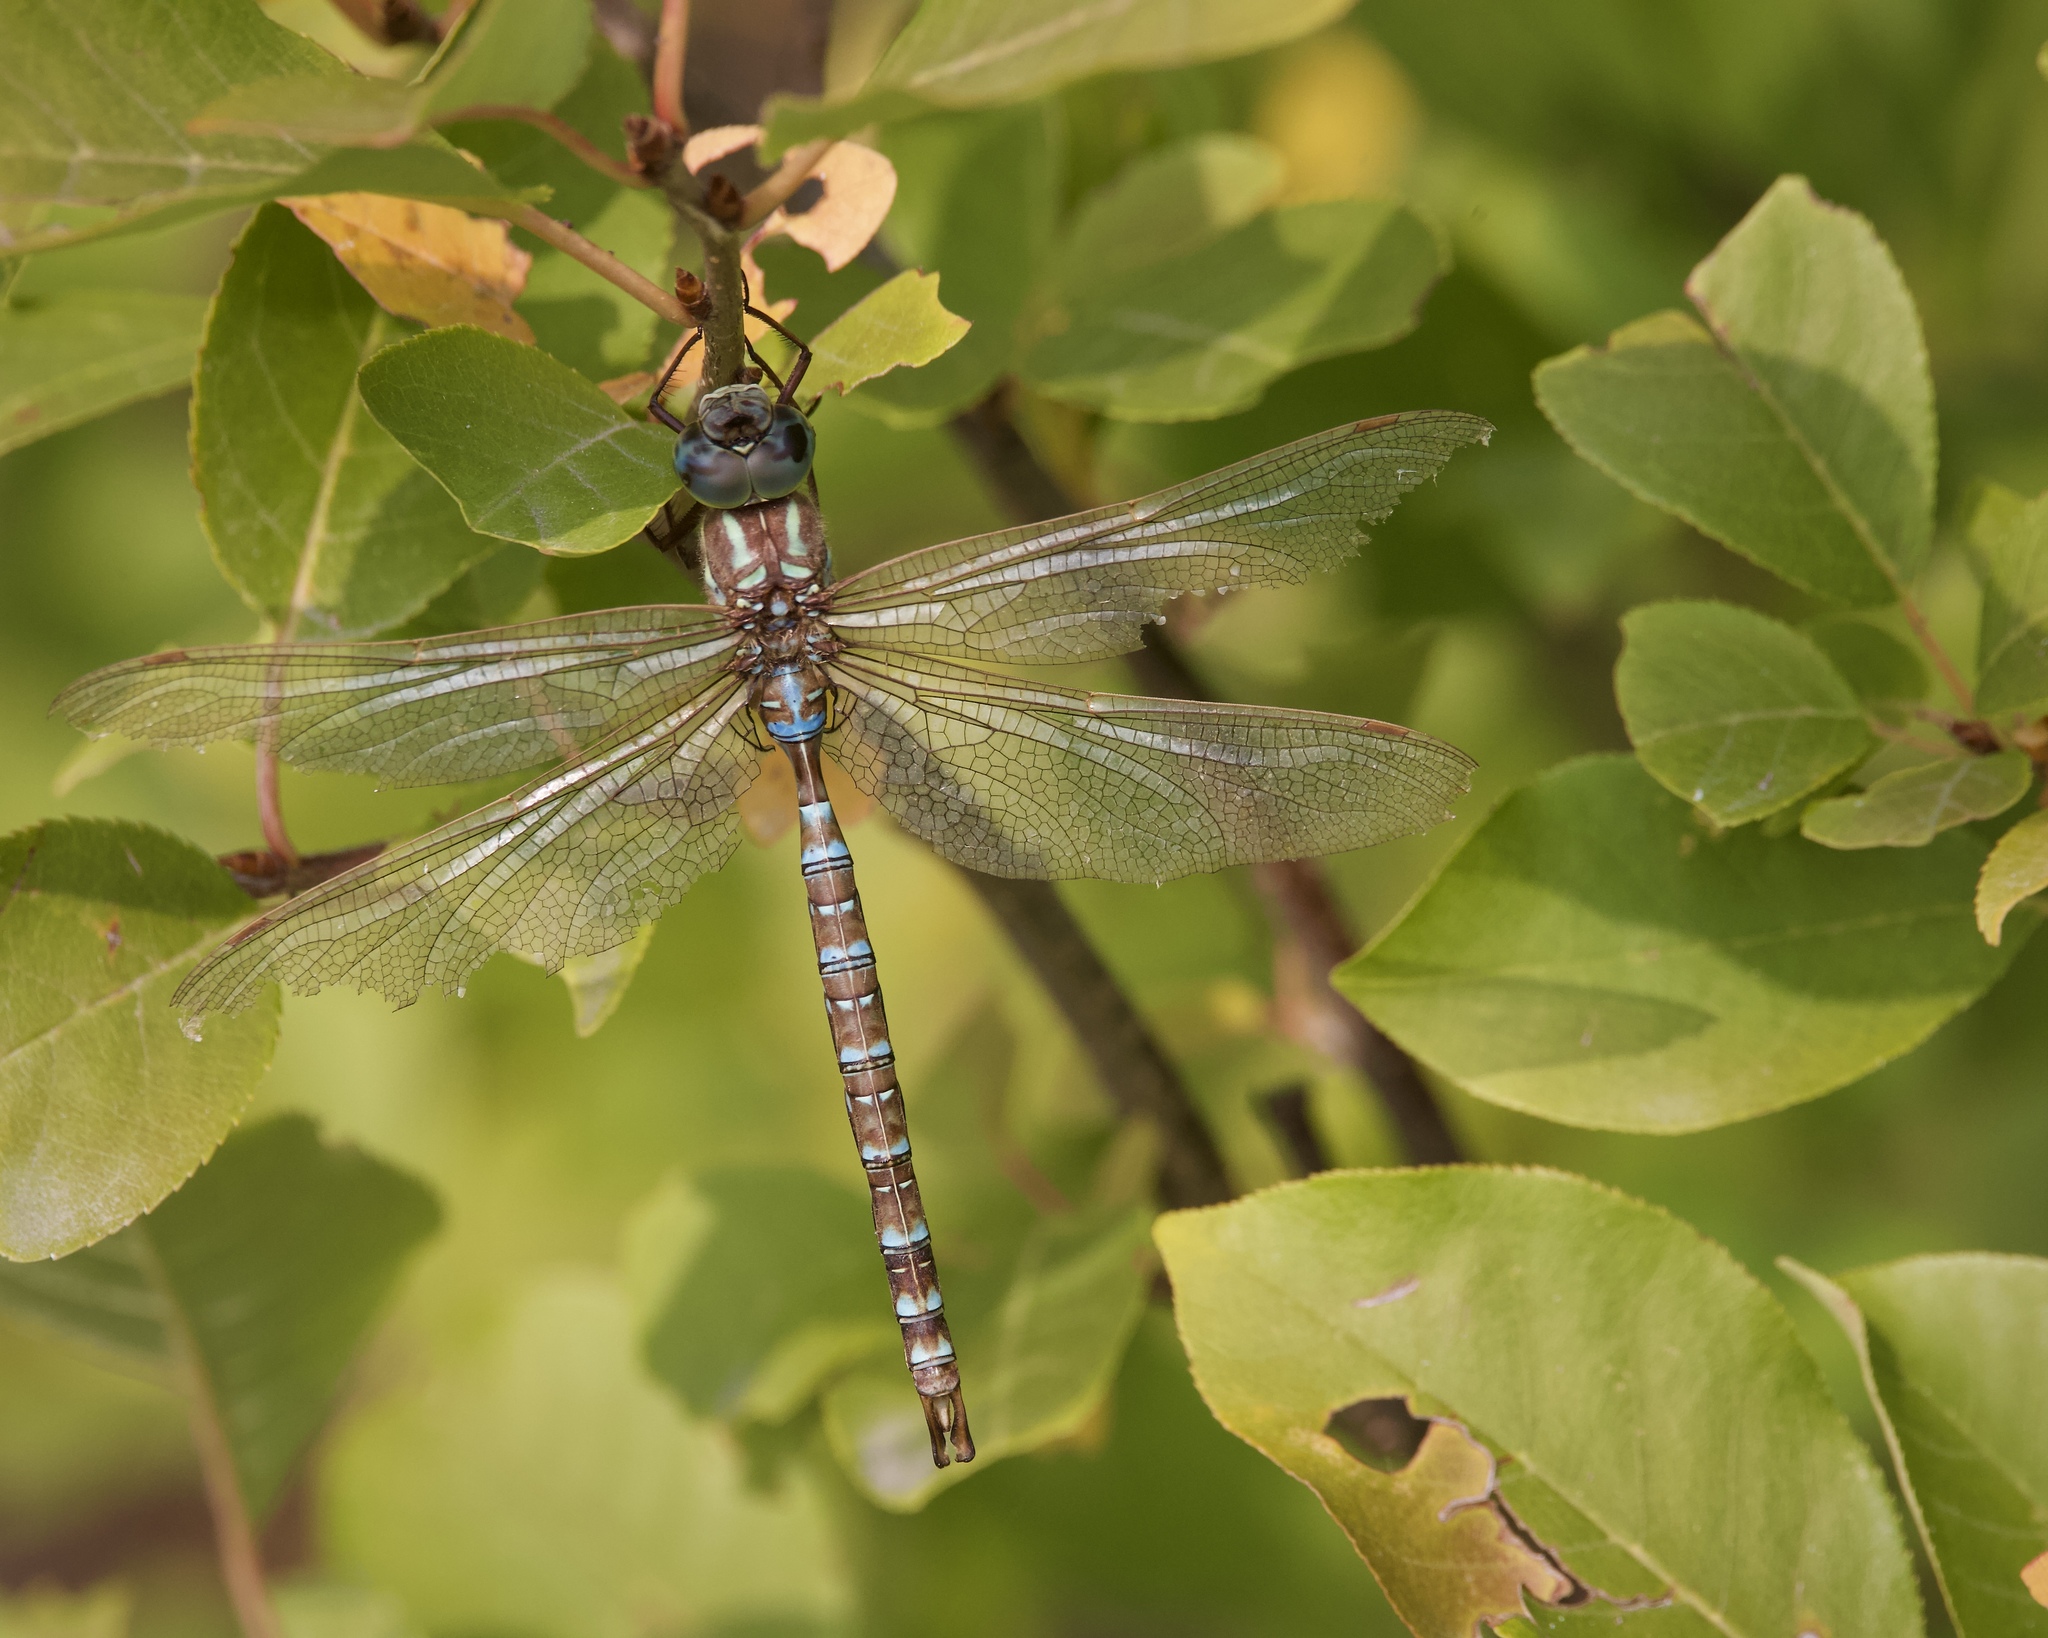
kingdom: Animalia
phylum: Arthropoda
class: Insecta
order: Odonata
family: Aeshnidae
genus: Aeshna
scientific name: Aeshna umbrosa
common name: Shadow darner
